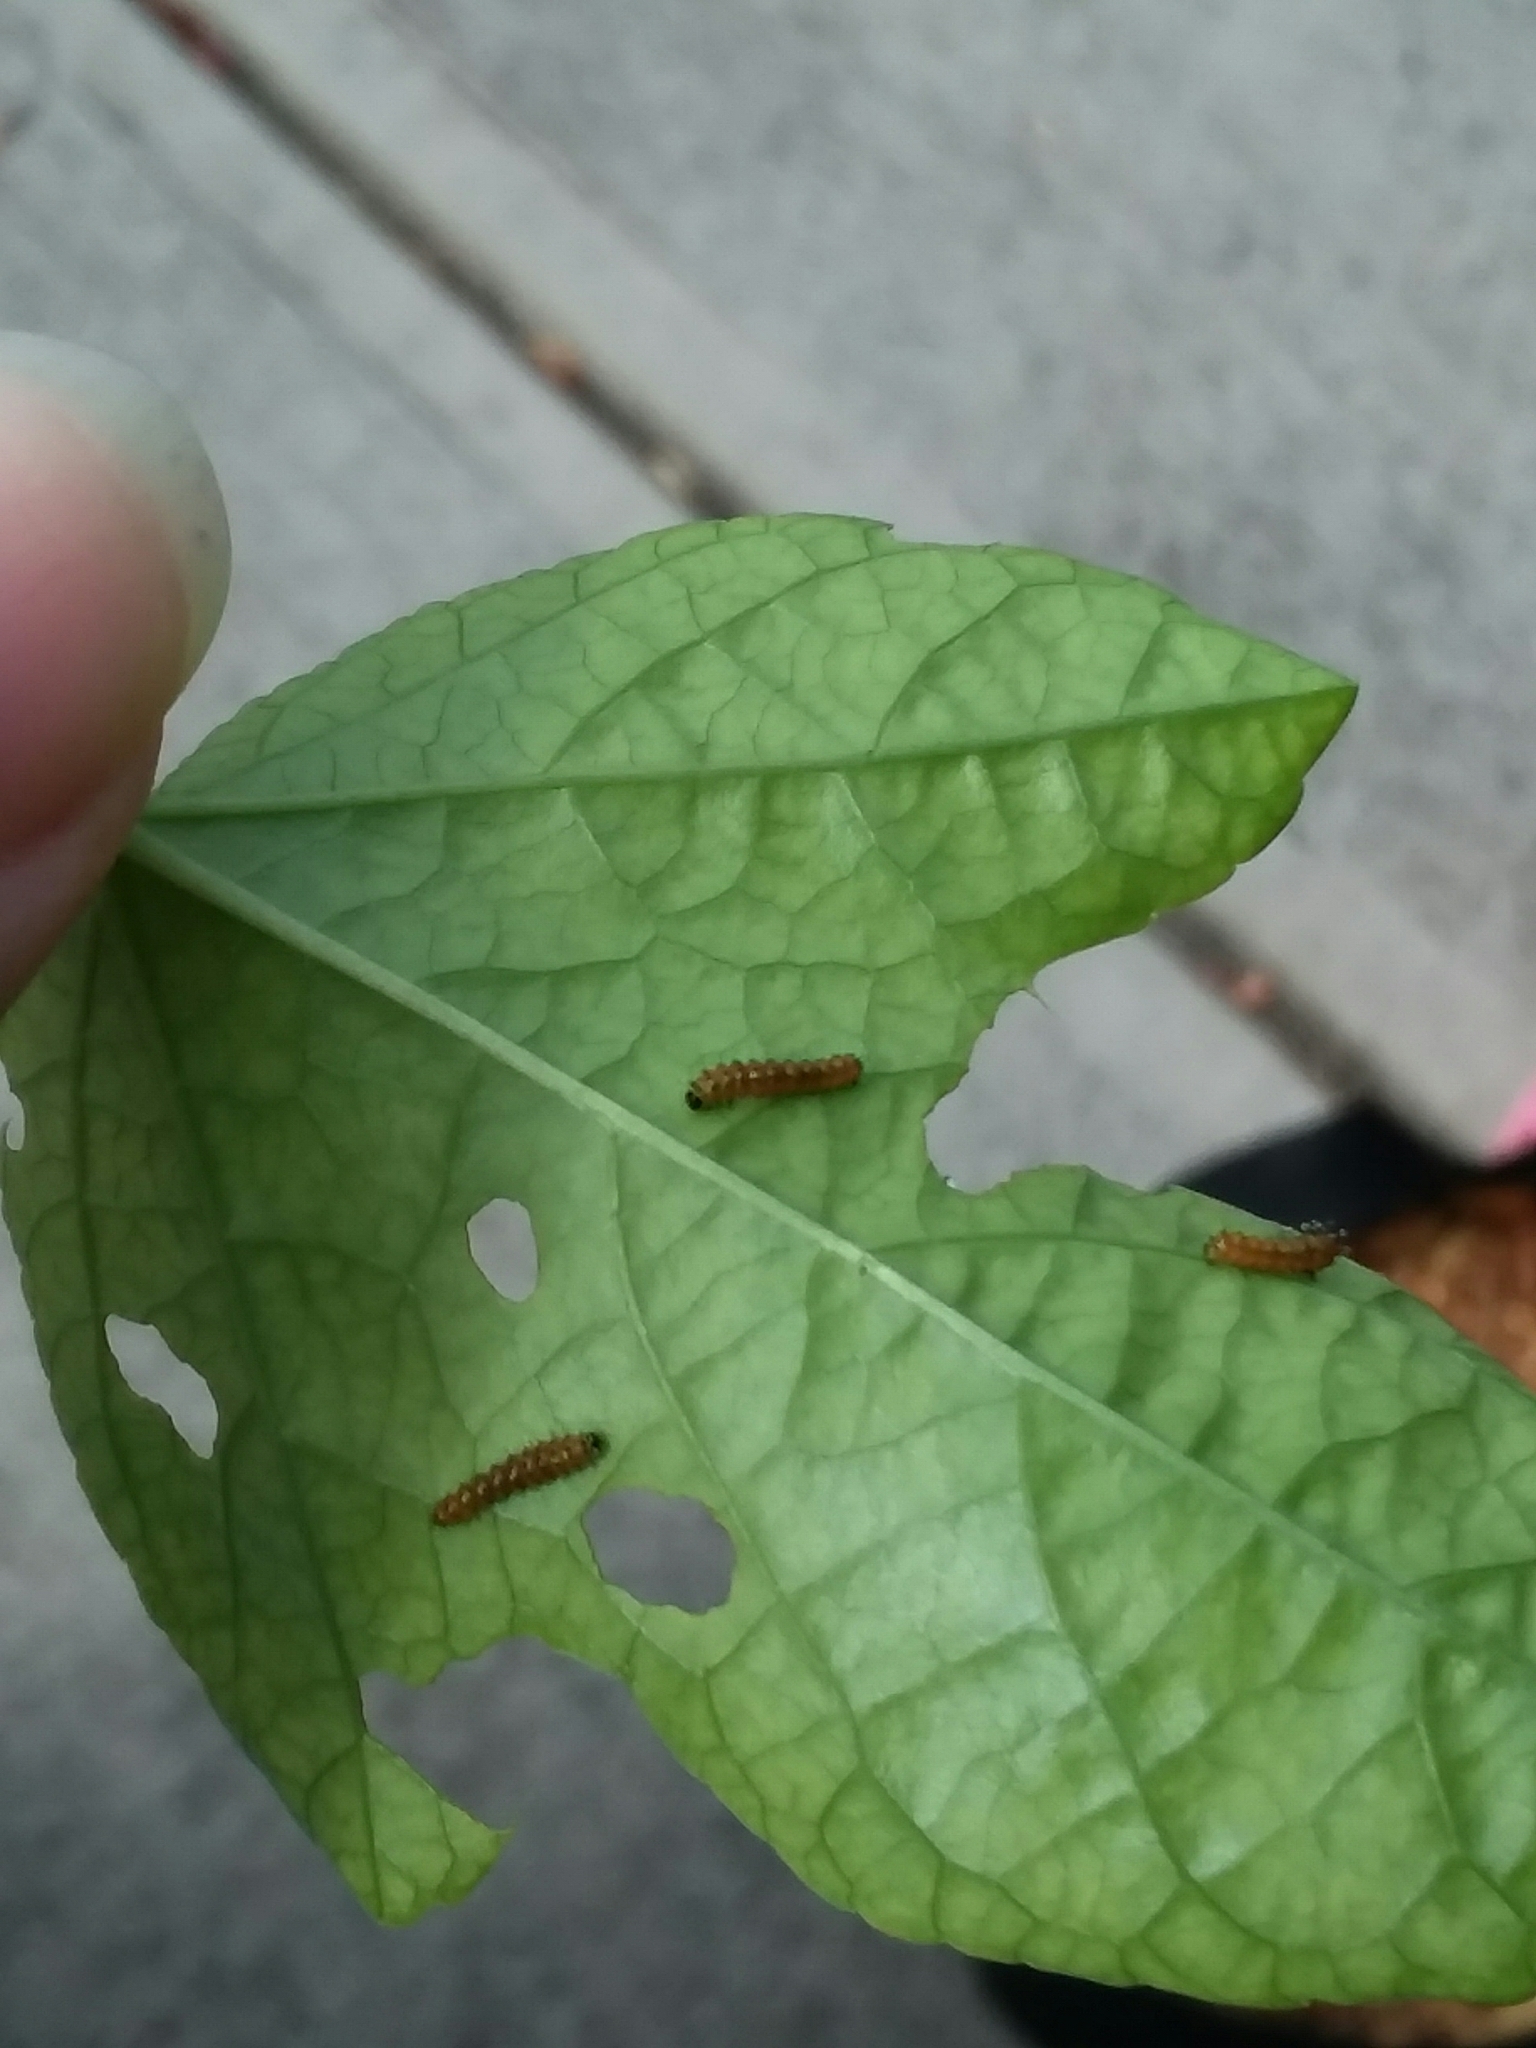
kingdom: Animalia
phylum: Arthropoda
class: Insecta
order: Lepidoptera
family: Nymphalidae
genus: Dione
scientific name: Dione vanillae
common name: Gulf fritillary
